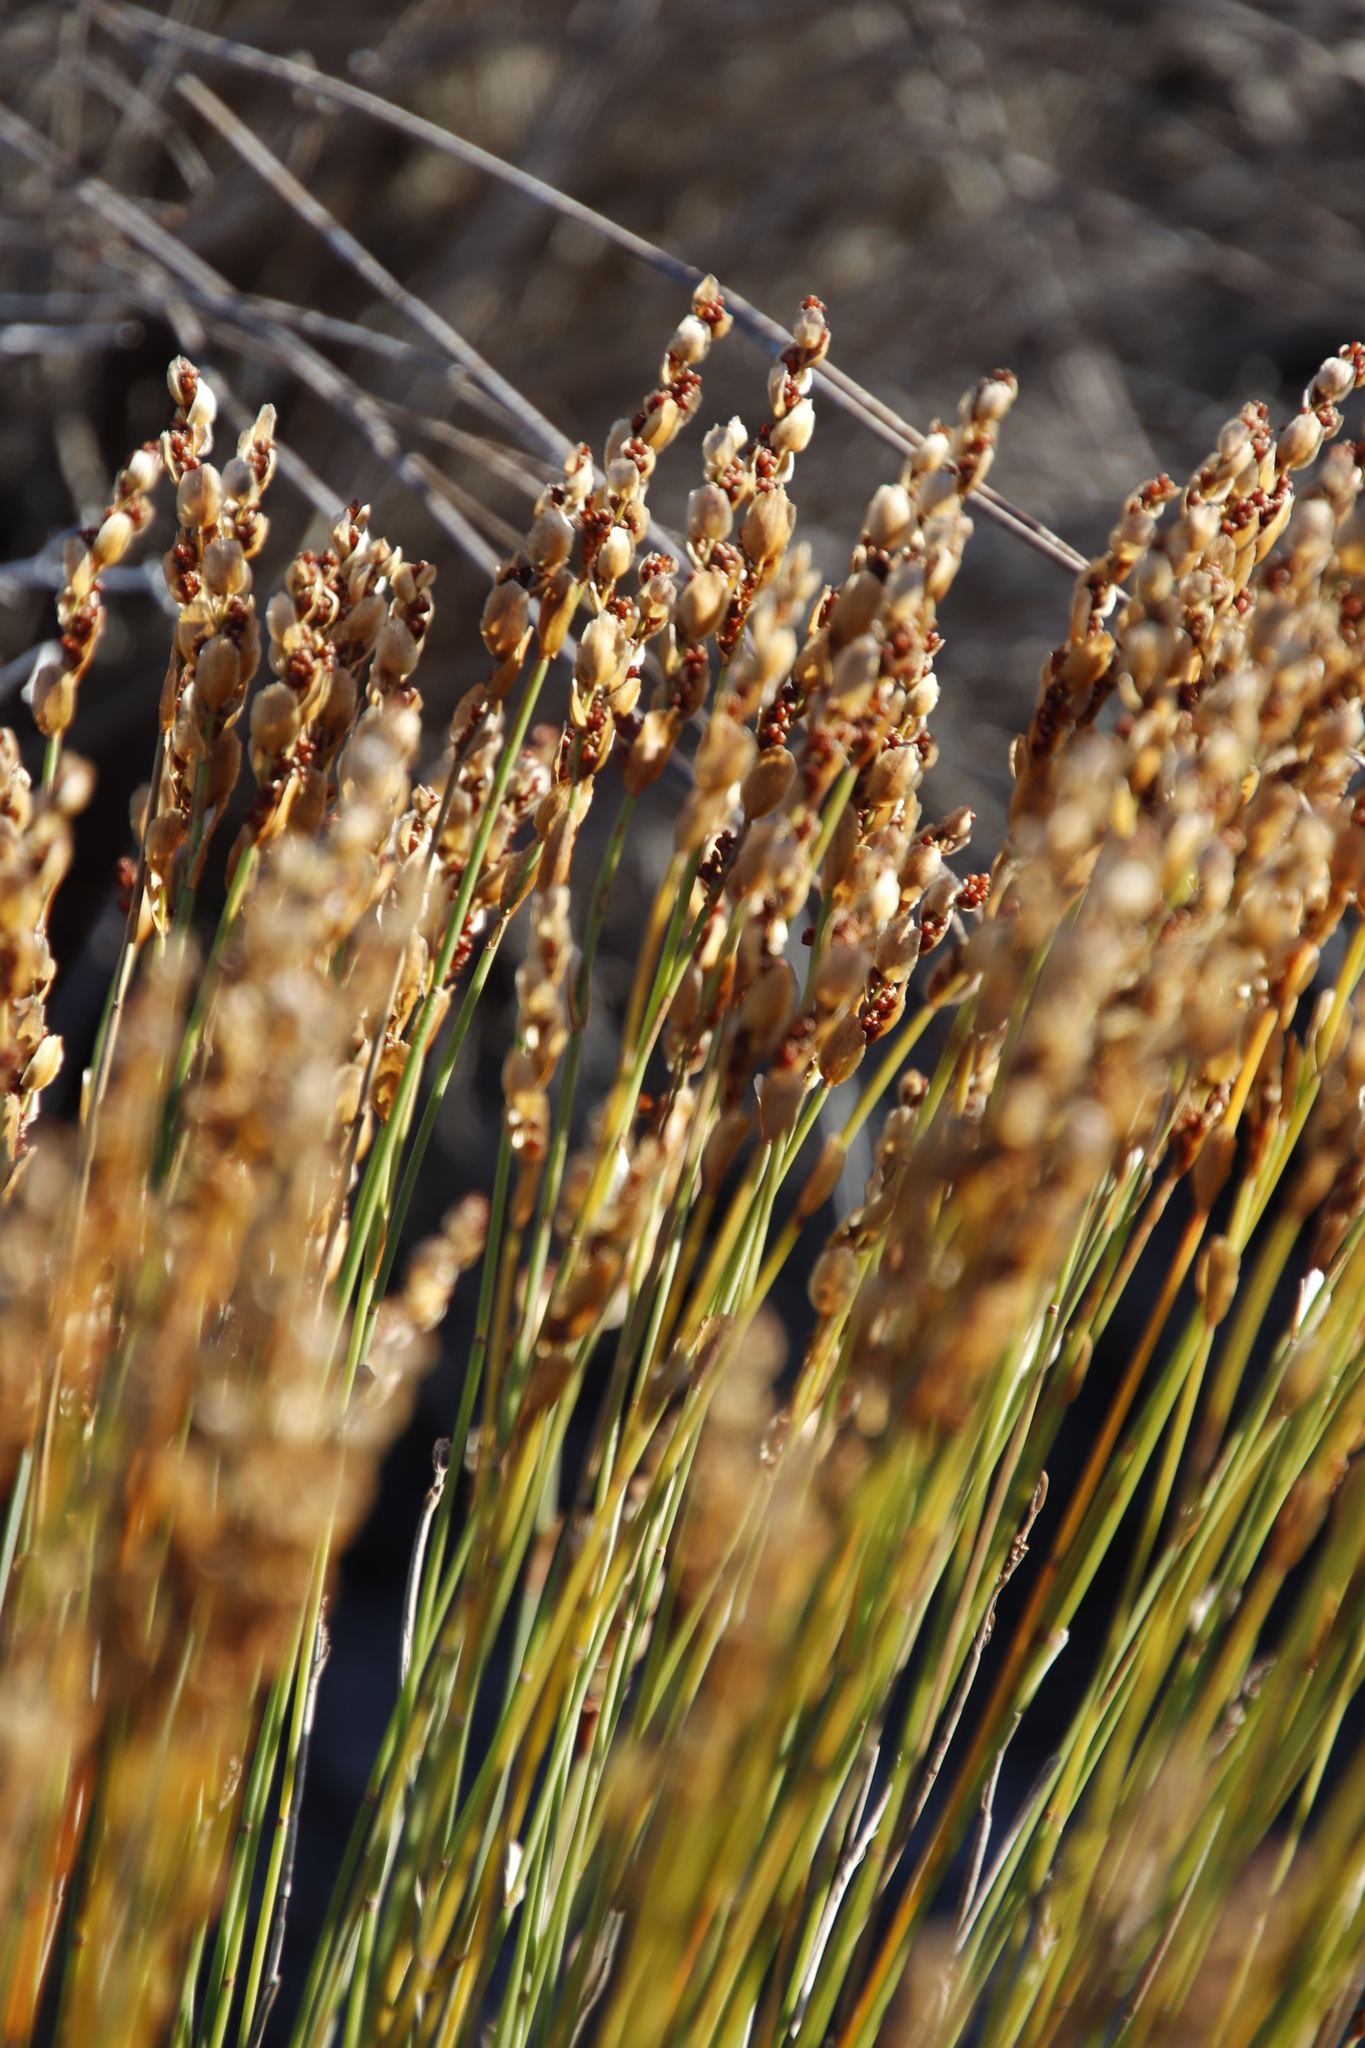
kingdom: Plantae
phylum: Tracheophyta
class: Liliopsida
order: Poales
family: Restionaceae
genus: Elegia
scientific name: Elegia filacea
